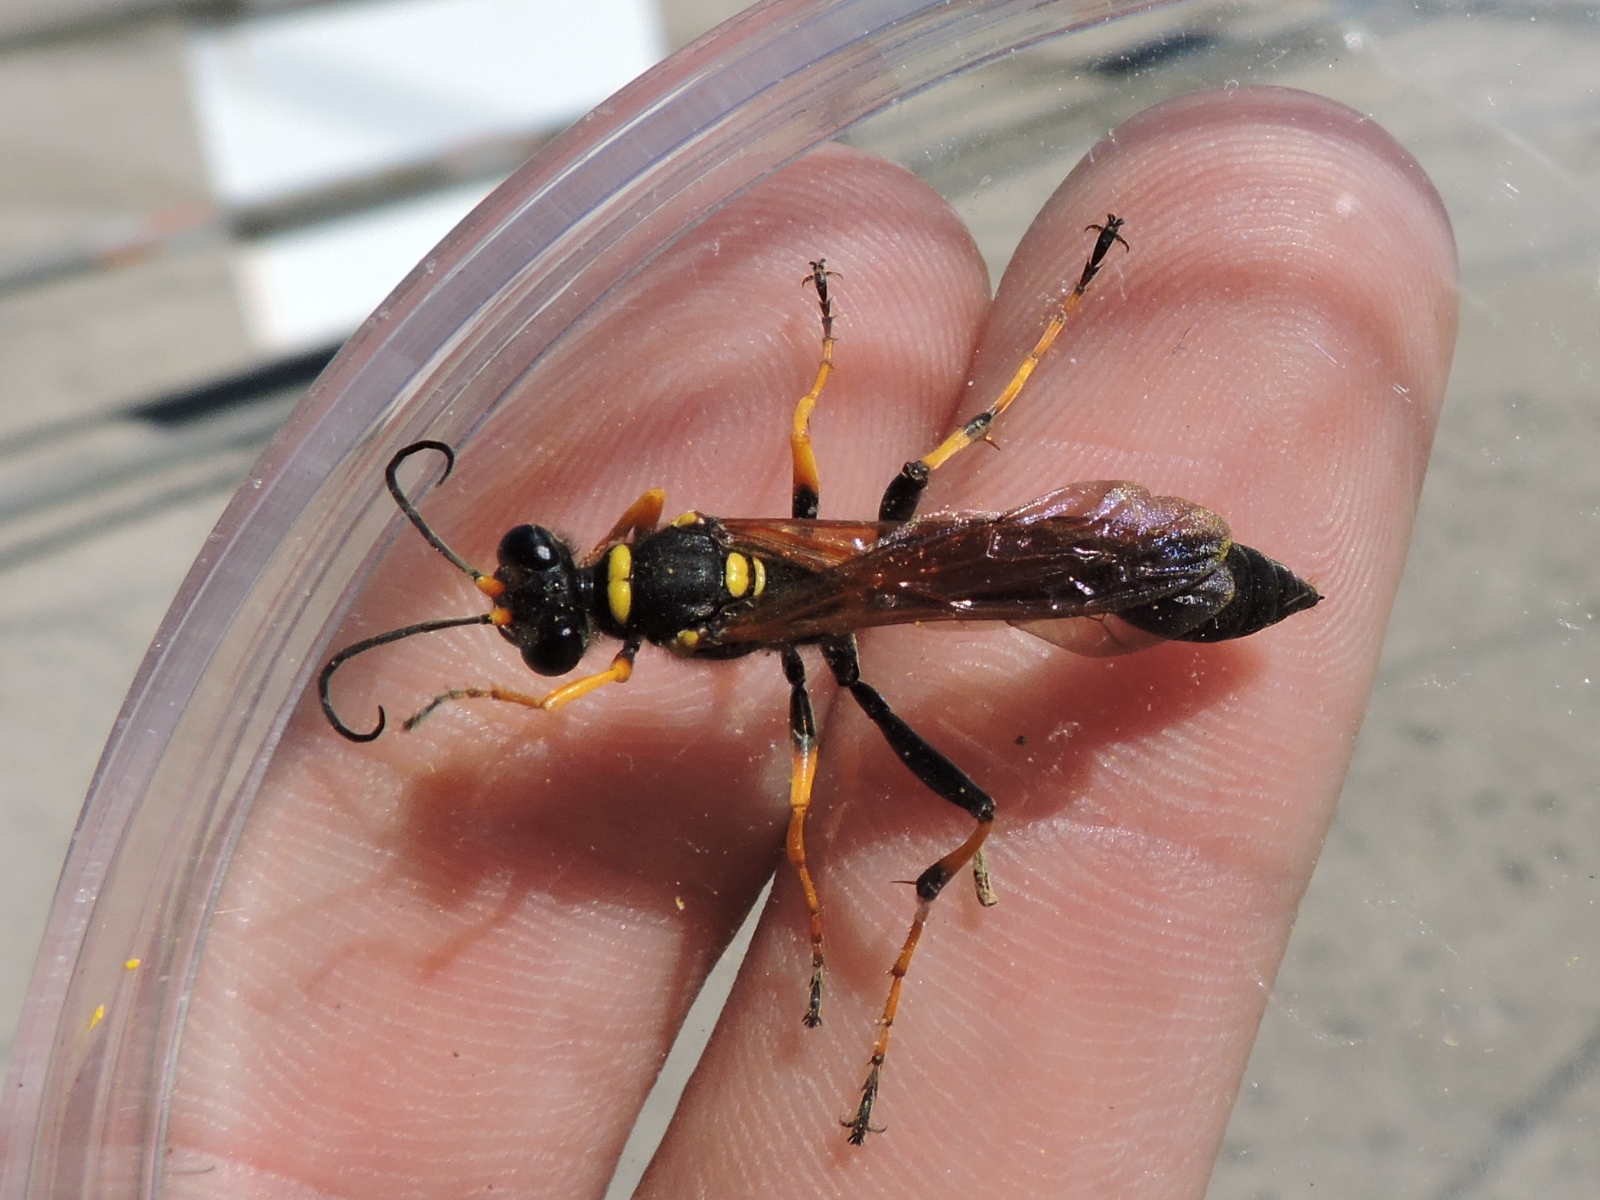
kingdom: Animalia
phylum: Arthropoda
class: Insecta
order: Hymenoptera
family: Sphecidae
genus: Sceliphron
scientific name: Sceliphron caementarium
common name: Mud dauber
